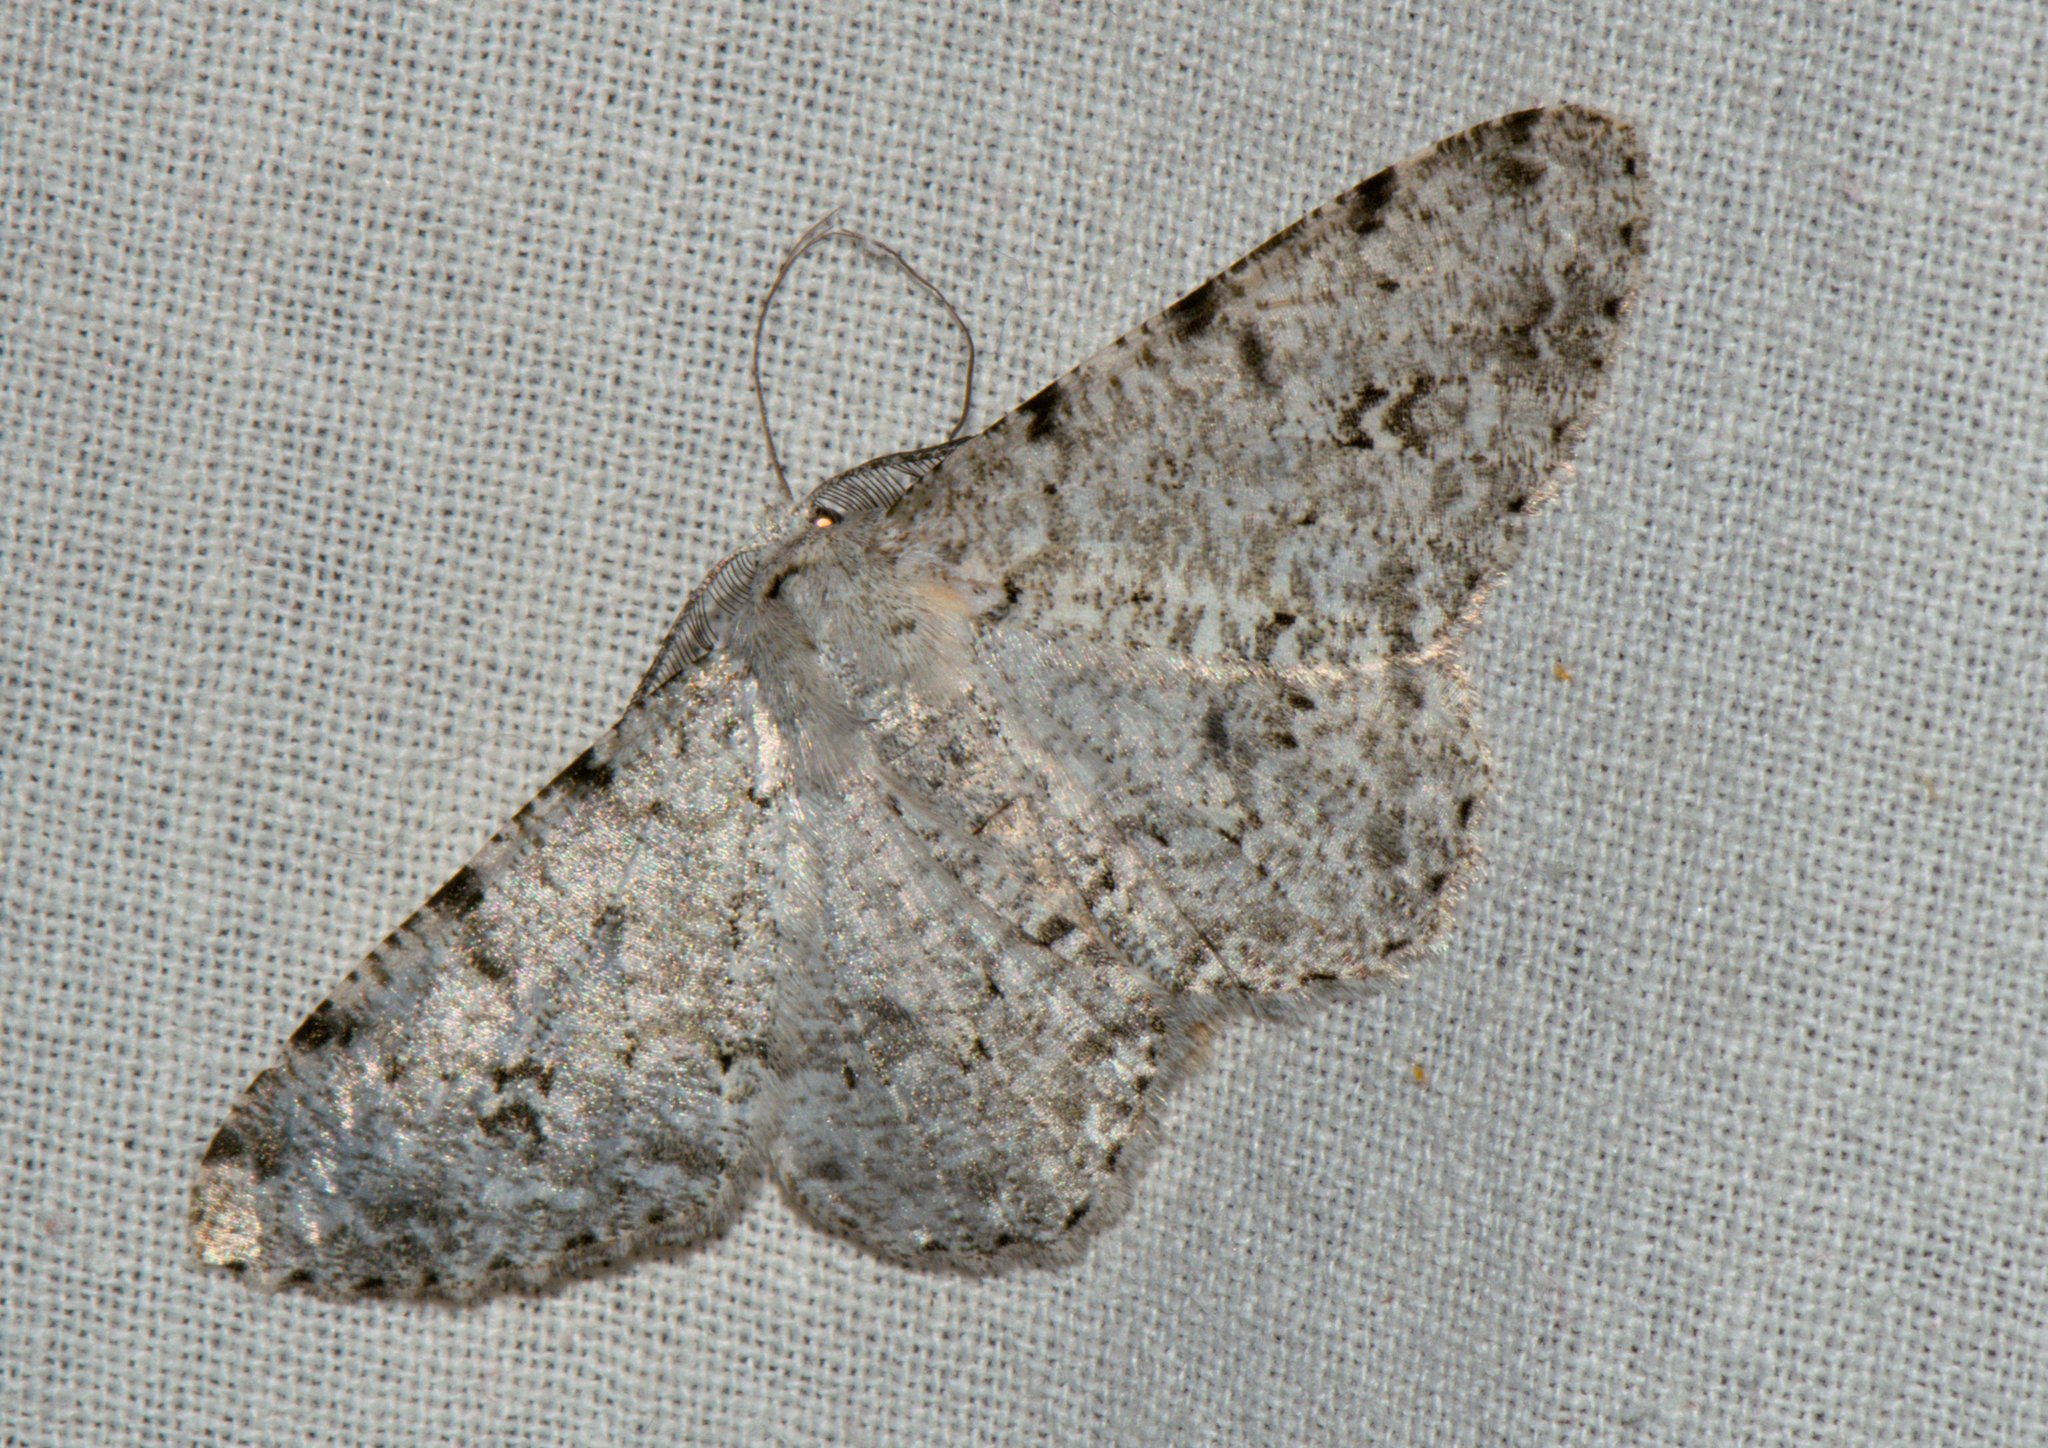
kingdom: Animalia
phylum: Arthropoda
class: Insecta
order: Lepidoptera
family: Geometridae
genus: Lassaba
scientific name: Lassaba albidaria
